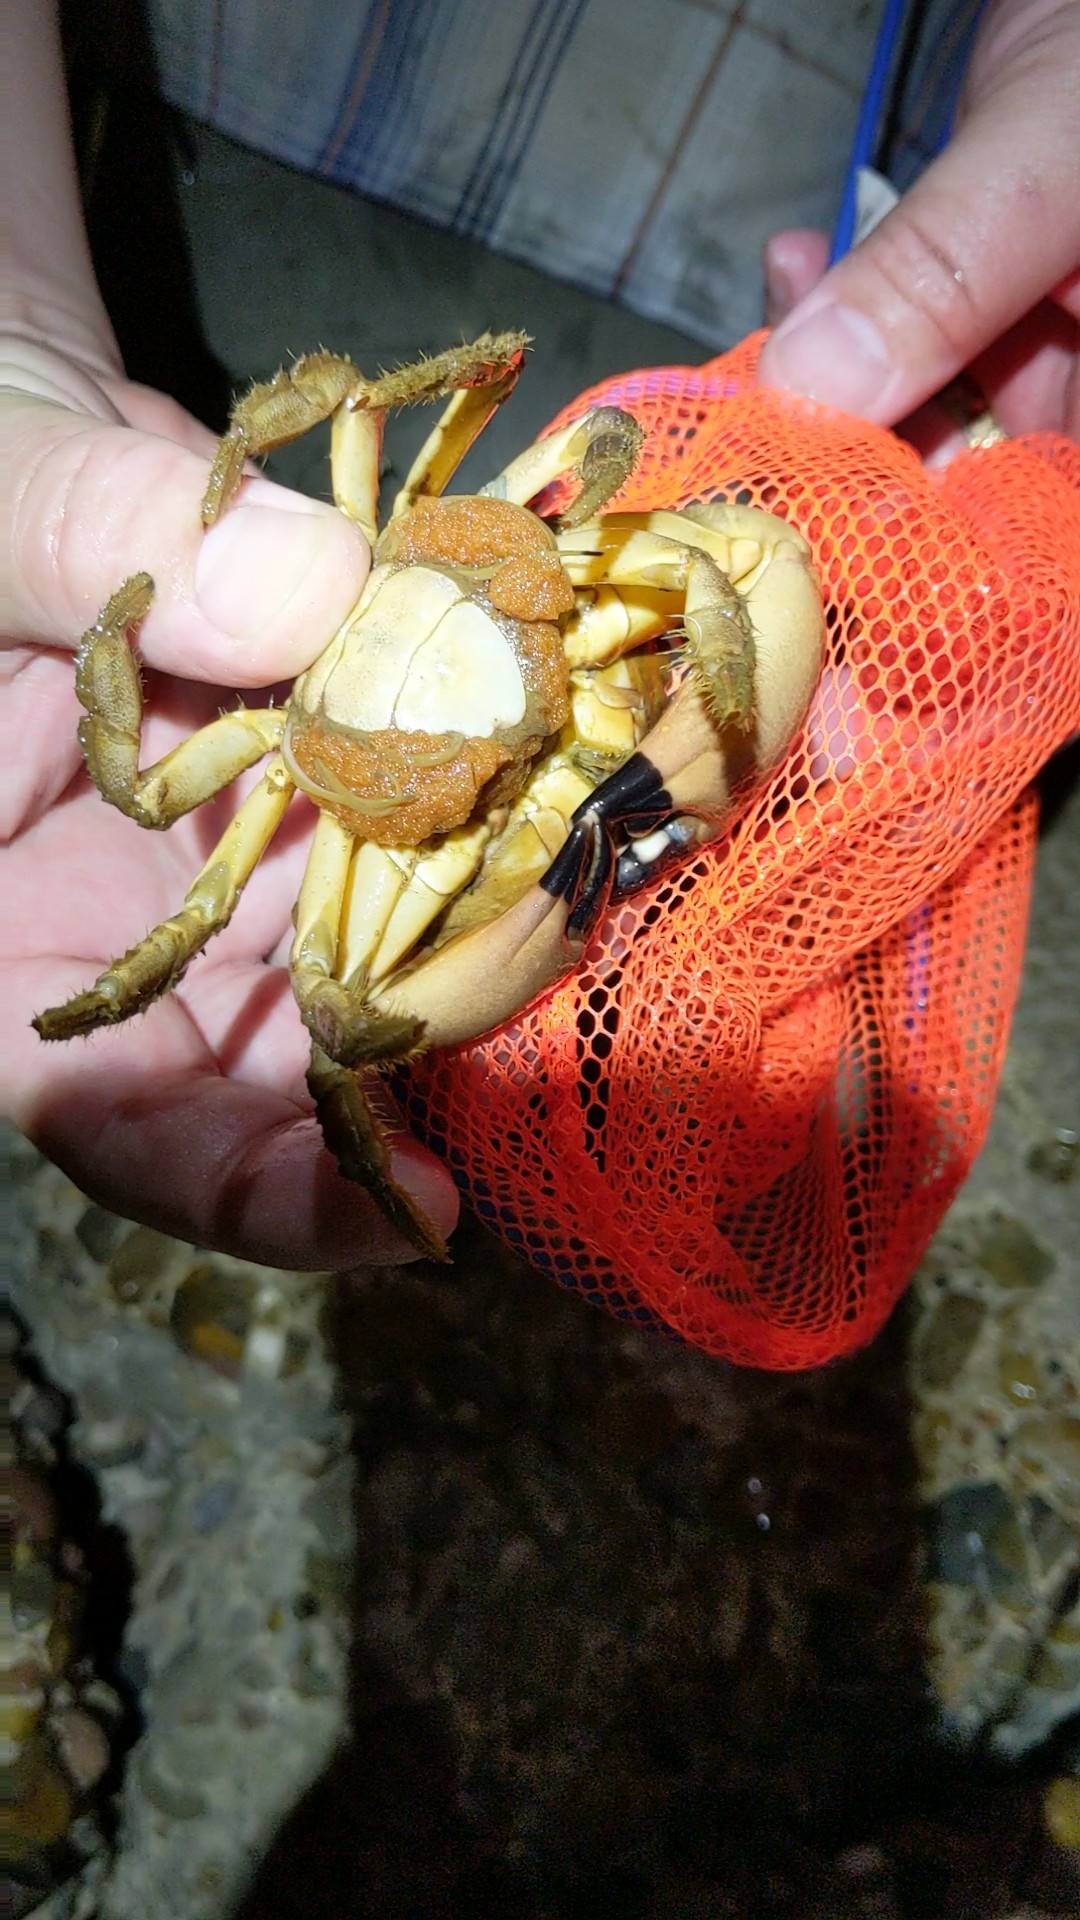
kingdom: Animalia
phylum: Arthropoda
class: Malacostraca
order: Decapoda
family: Menippidae
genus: Menippe
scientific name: Menippe adina
